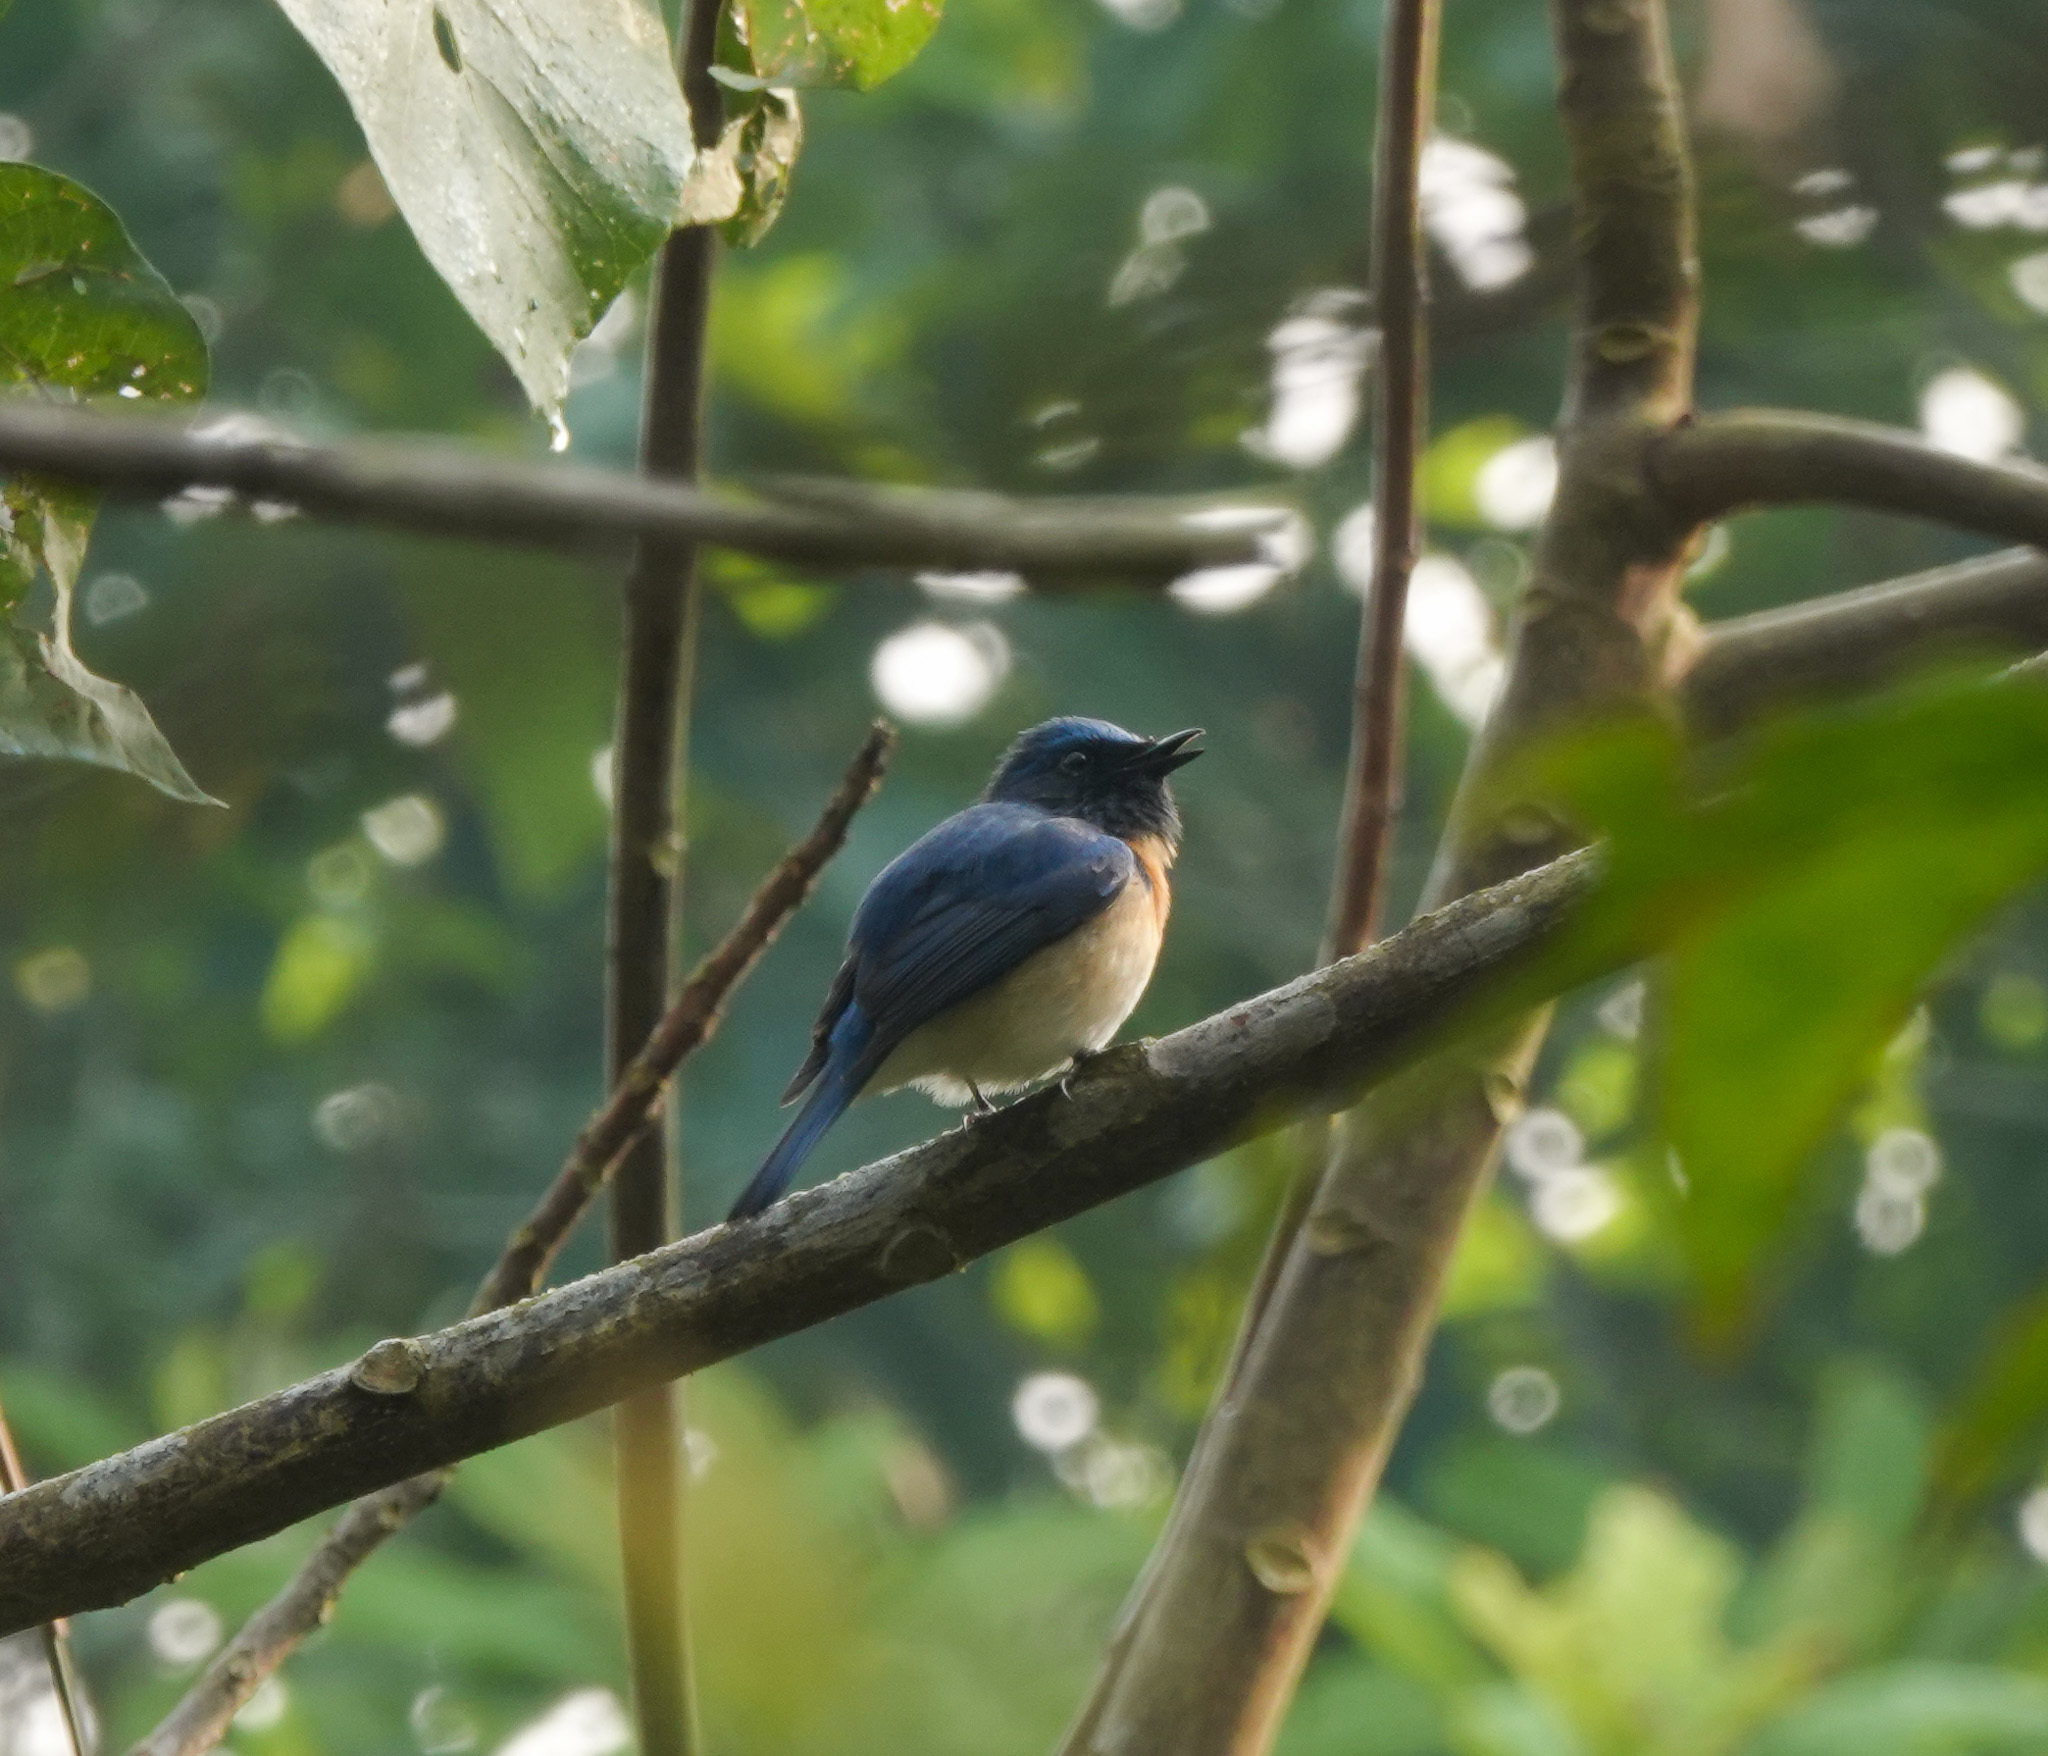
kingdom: Animalia
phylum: Chordata
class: Aves
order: Passeriformes
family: Muscicapidae
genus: Cyornis
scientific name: Cyornis rubeculoides
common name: Blue-throated blue flycatcher
